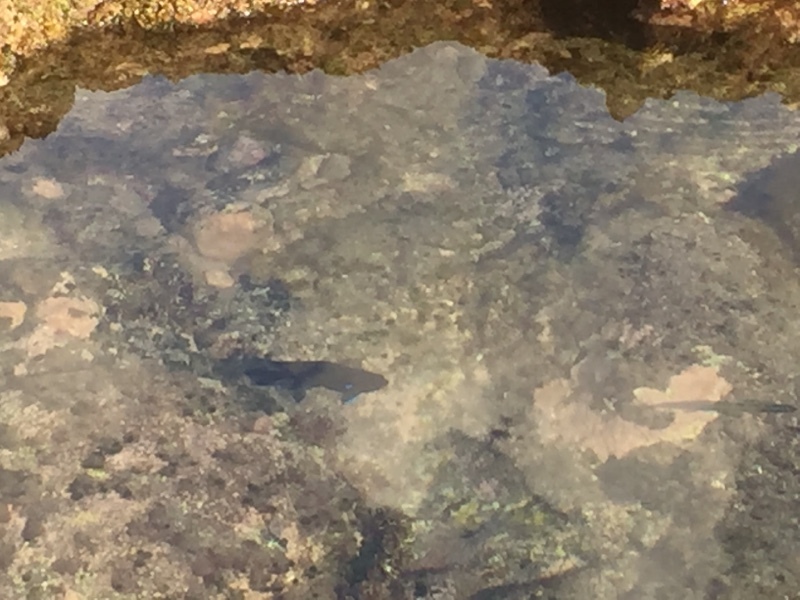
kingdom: Animalia
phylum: Chordata
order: Perciformes
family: Pomacentridae
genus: Similiparma
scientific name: Similiparma lurida
